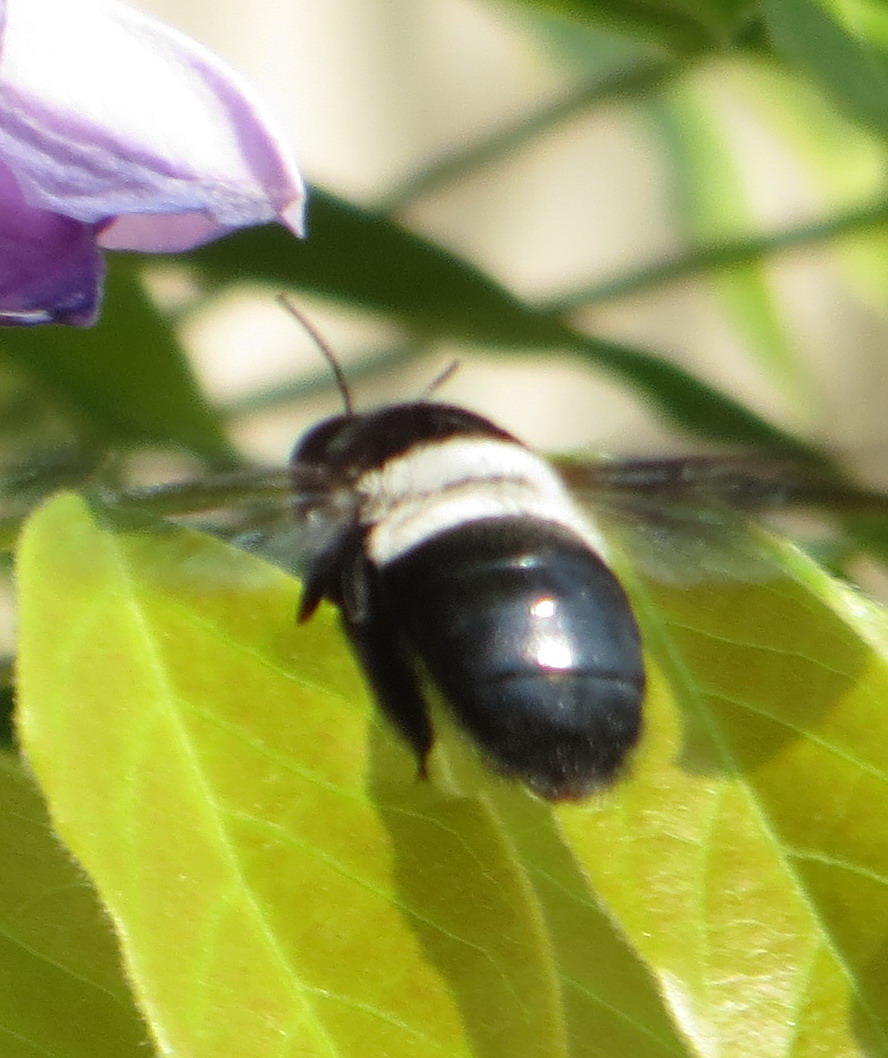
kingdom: Animalia
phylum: Arthropoda
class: Insecta
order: Hymenoptera
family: Apidae
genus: Xylocopa
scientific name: Xylocopa caffra
